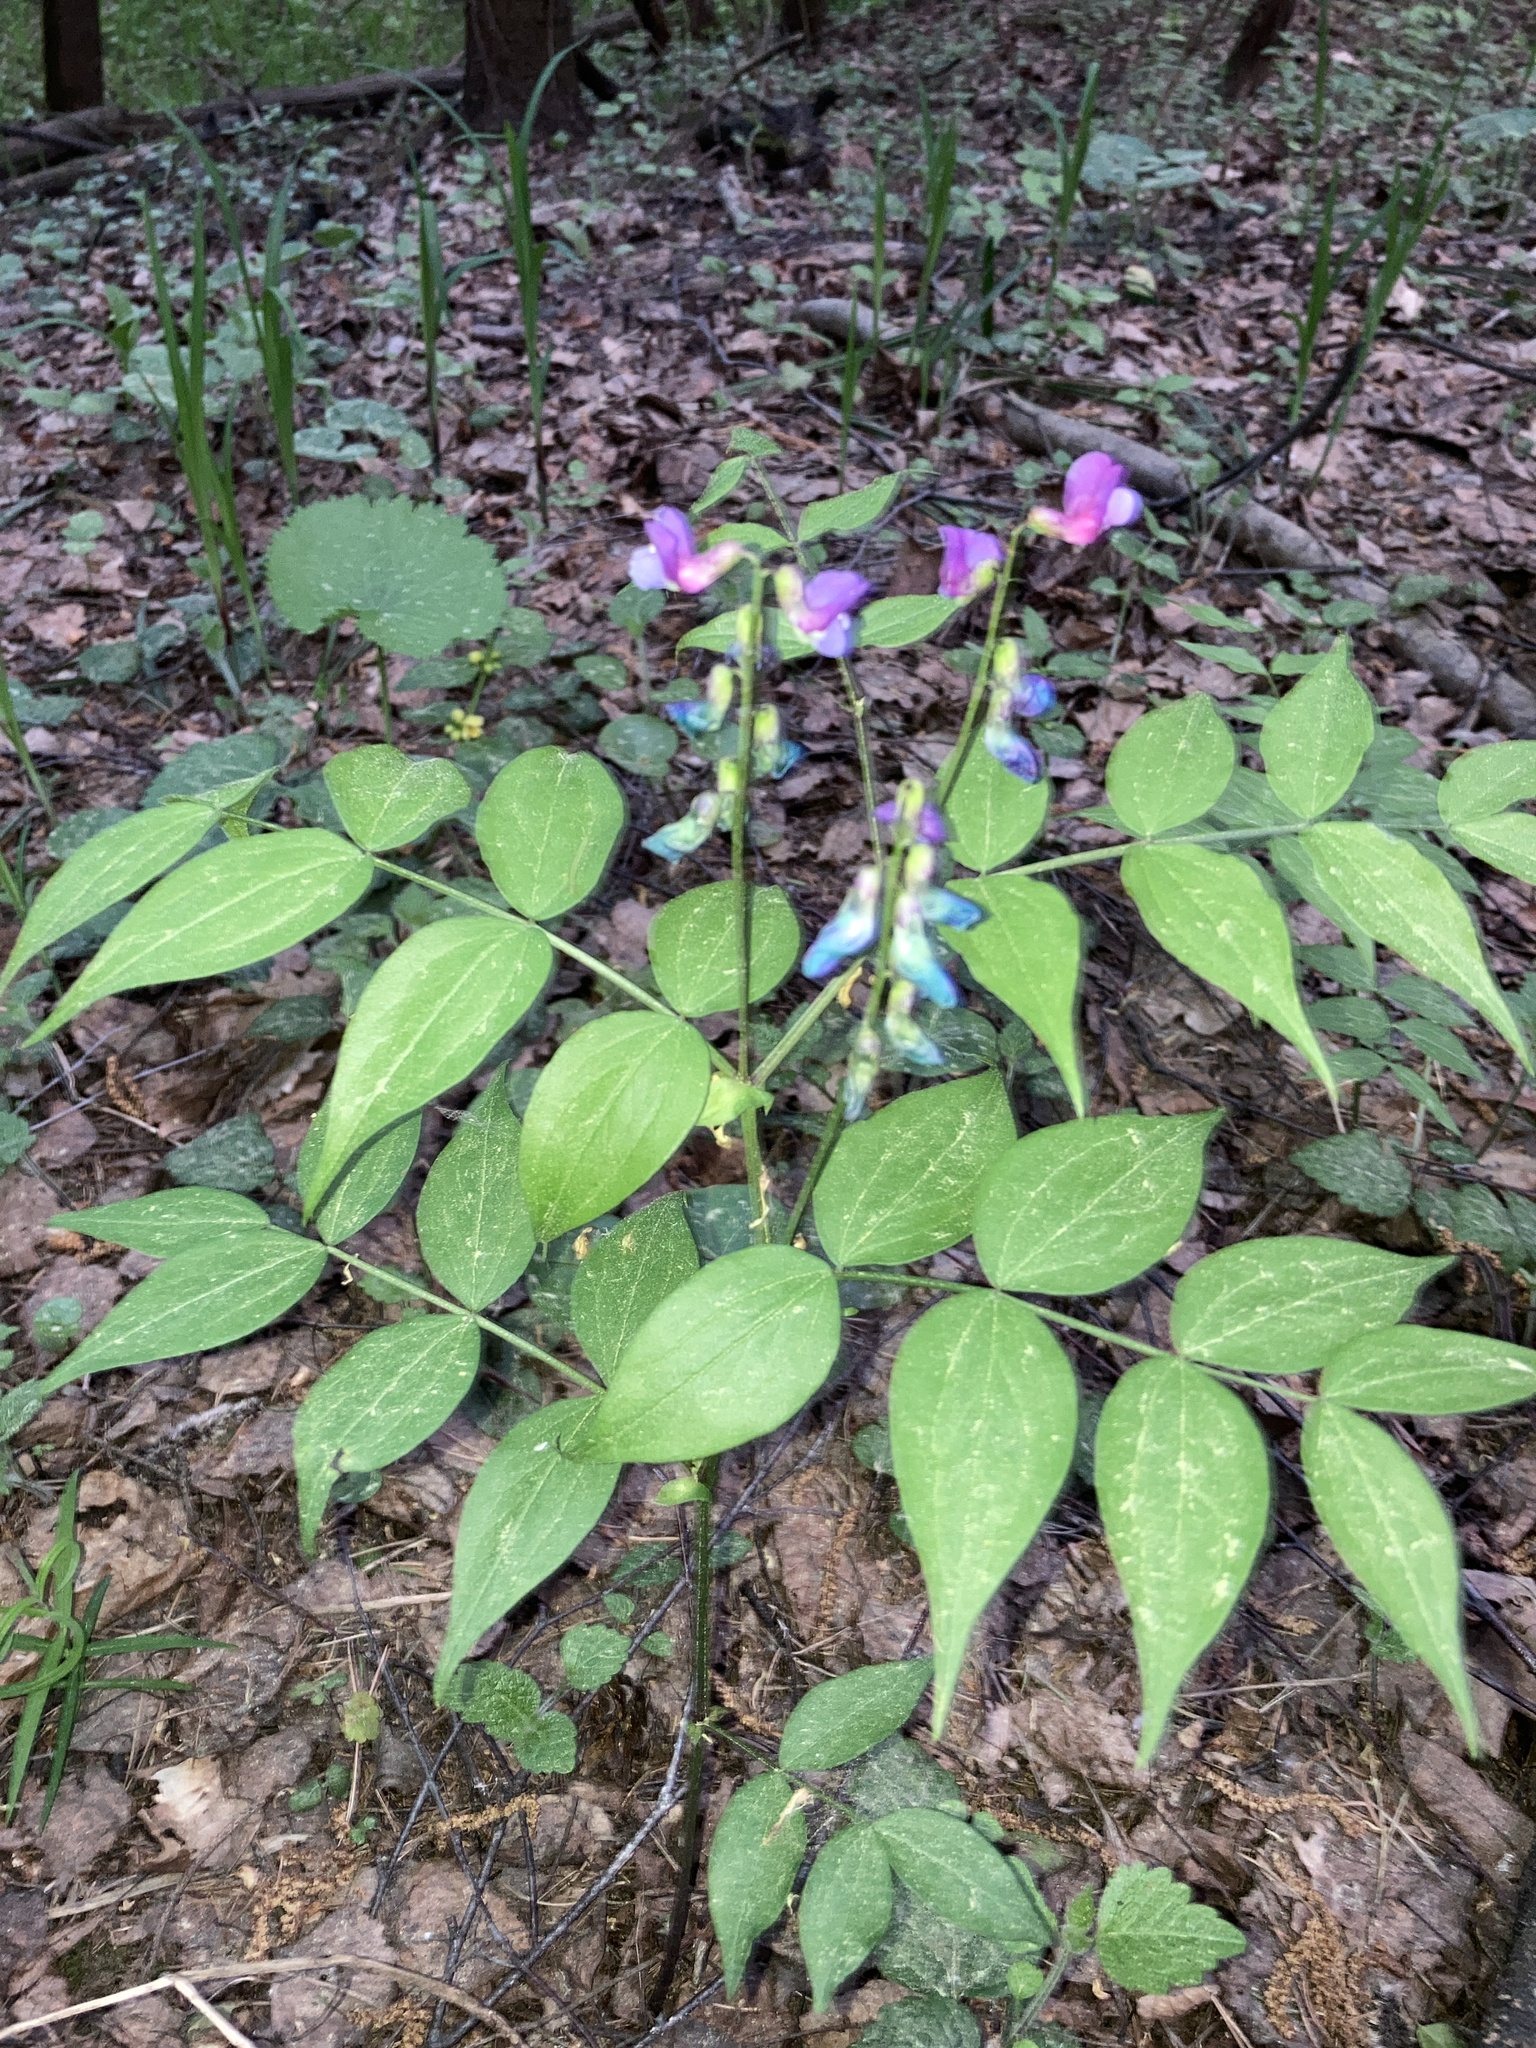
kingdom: Plantae
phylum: Tracheophyta
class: Magnoliopsida
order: Fabales
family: Fabaceae
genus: Lathyrus
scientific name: Lathyrus vernus
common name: Spring pea
